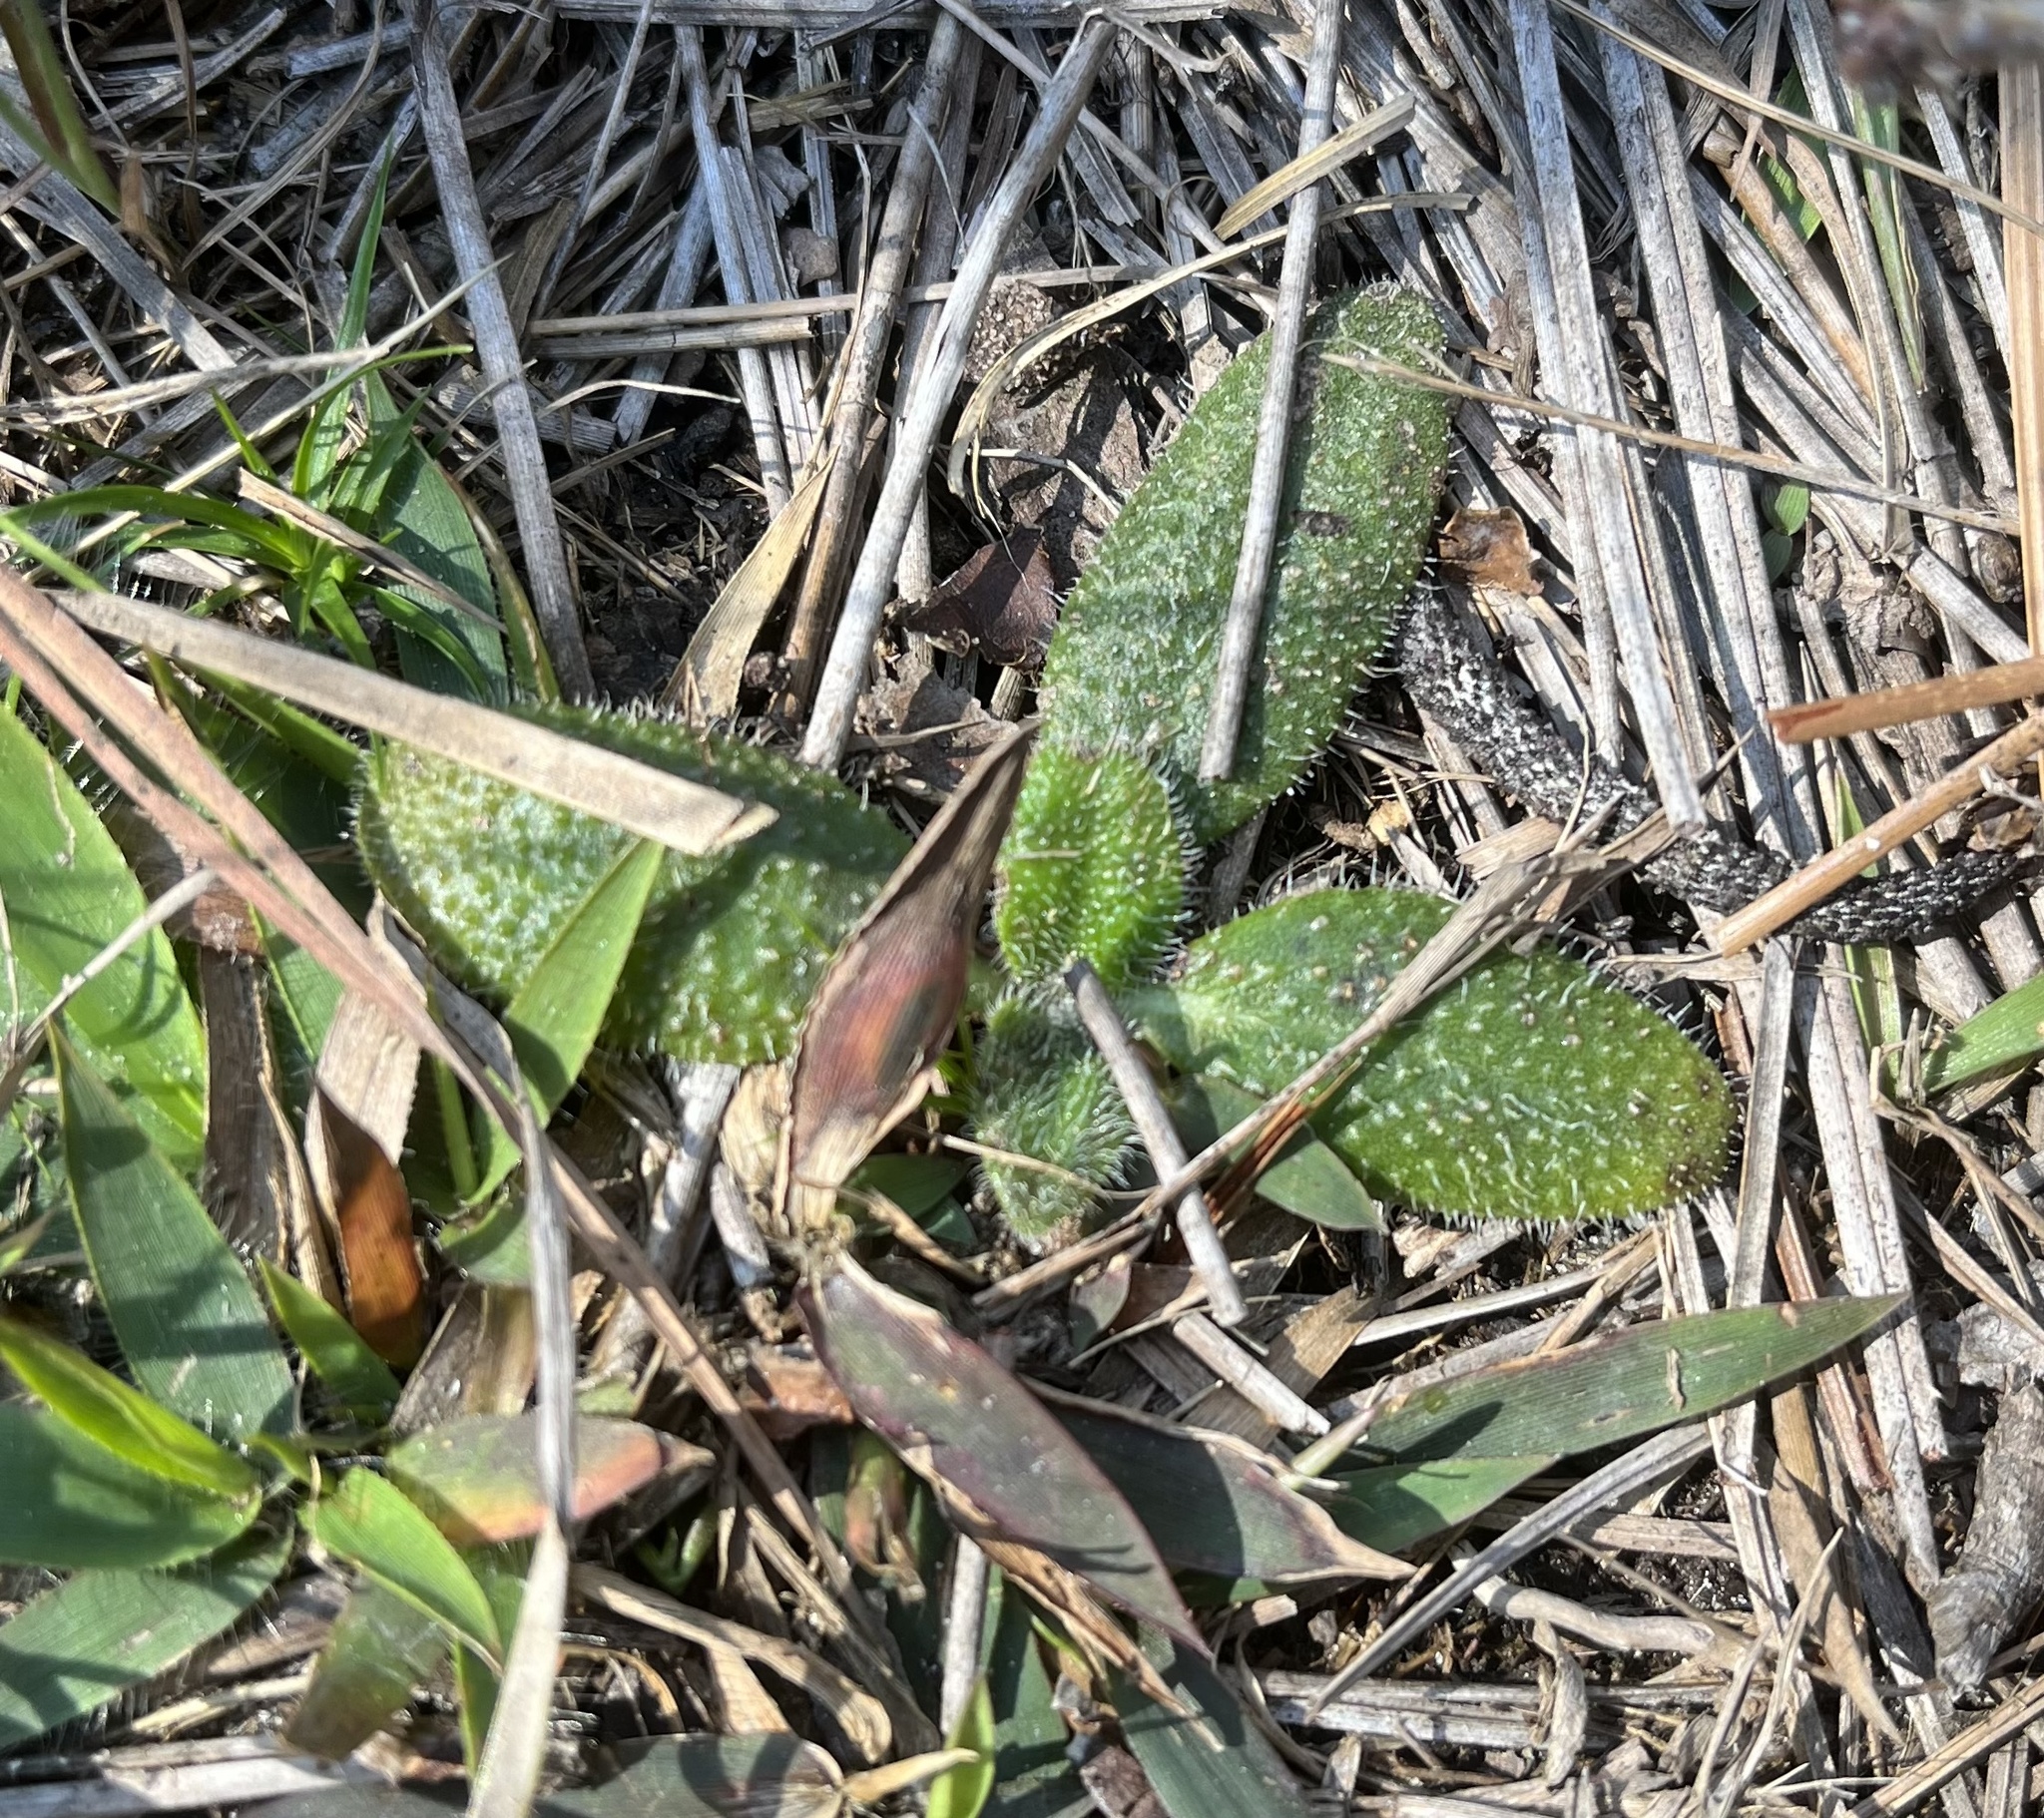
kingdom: Plantae
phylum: Tracheophyta
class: Magnoliopsida
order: Asterales
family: Asteraceae
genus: Helianthus
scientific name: Helianthus heterophyllus
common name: Wetland sunflower
